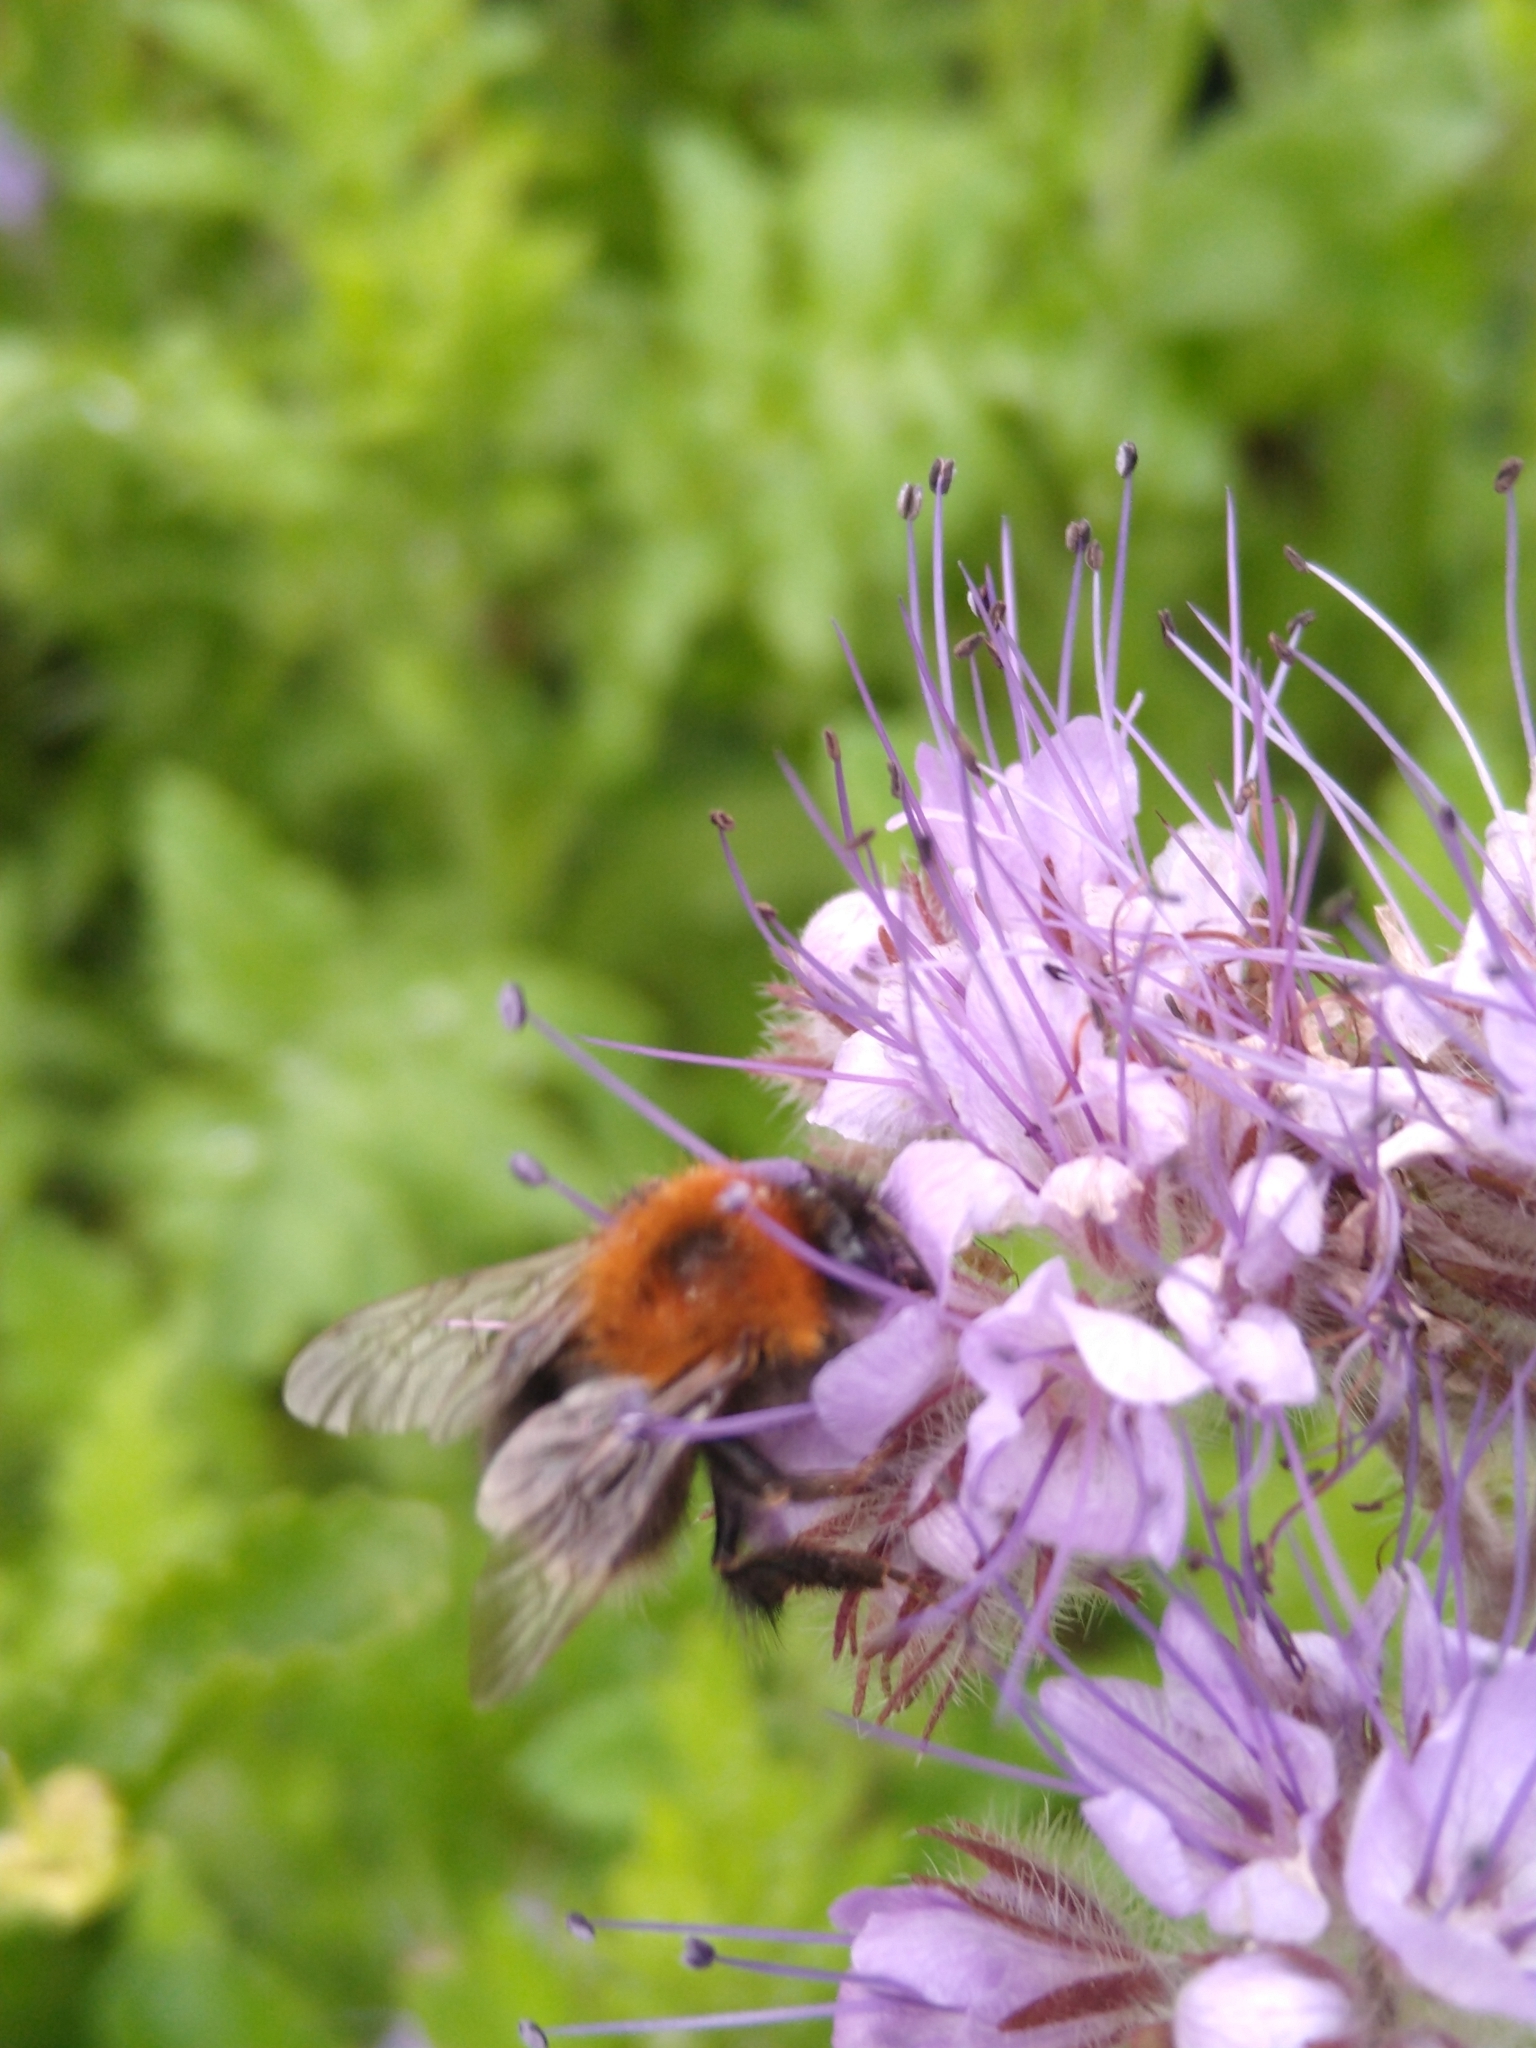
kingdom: Animalia
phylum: Arthropoda
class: Insecta
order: Hymenoptera
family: Apidae
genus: Bombus
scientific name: Bombus hypnorum
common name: New garden bumblebee
